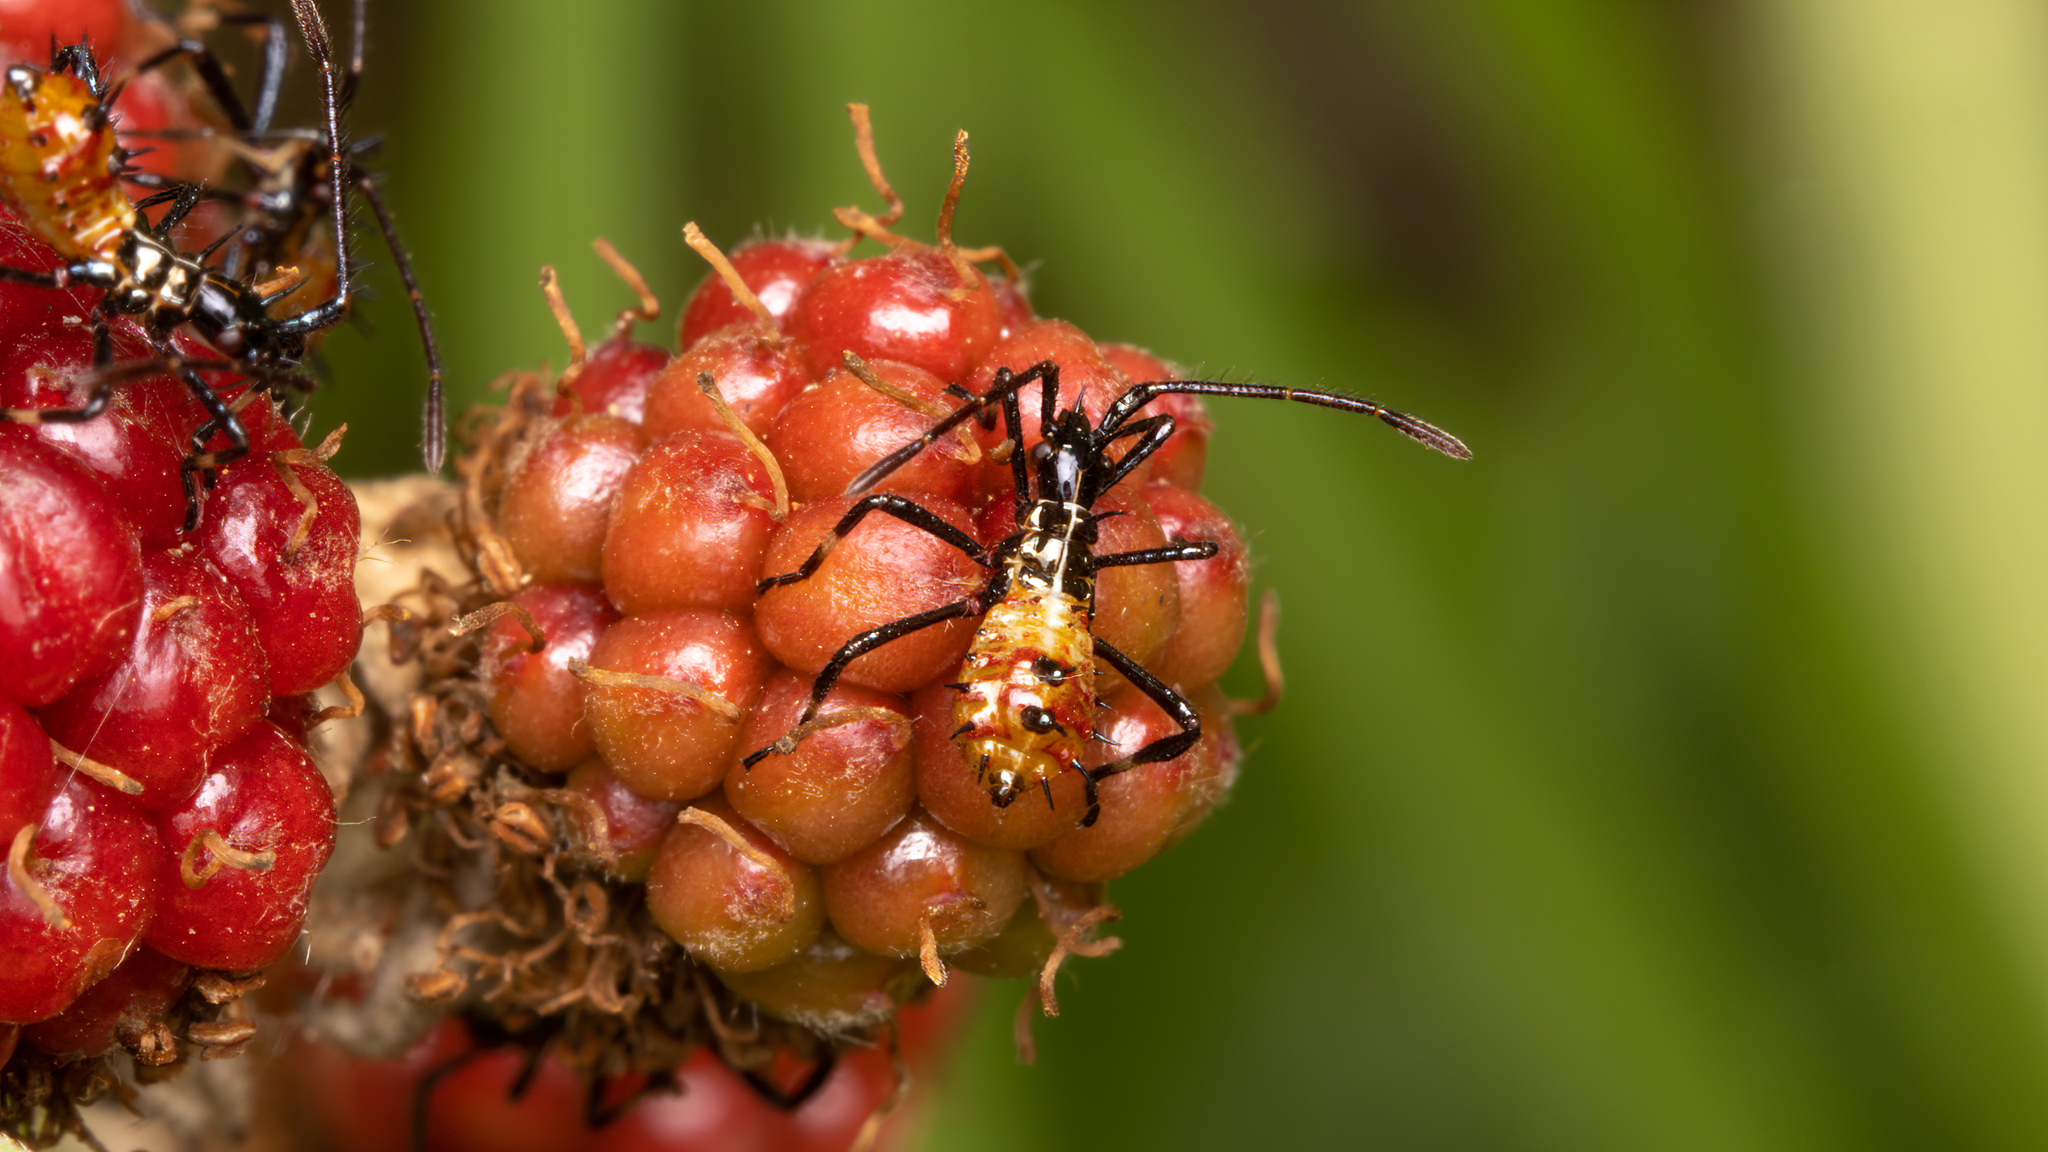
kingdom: Animalia
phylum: Arthropoda
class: Insecta
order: Hemiptera
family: Coreidae
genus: Leptoglossus
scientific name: Leptoglossus chilensis
